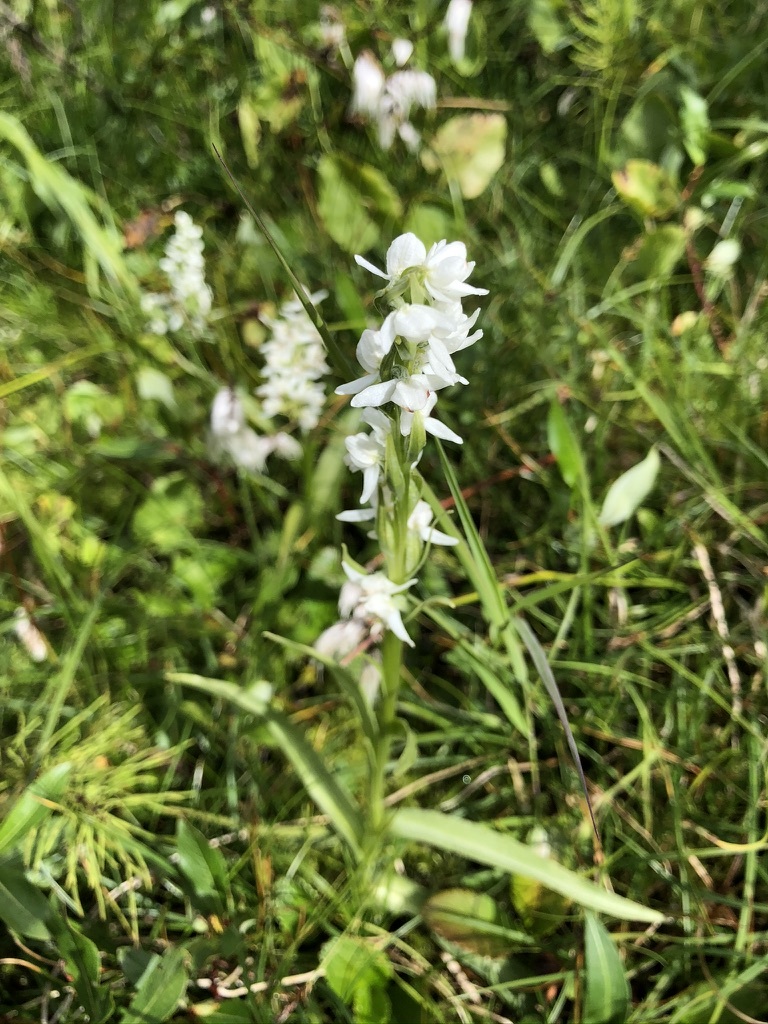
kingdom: Plantae
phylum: Tracheophyta
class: Liliopsida
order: Asparagales
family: Orchidaceae
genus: Platanthera
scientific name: Platanthera dilatata
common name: Bog candles
